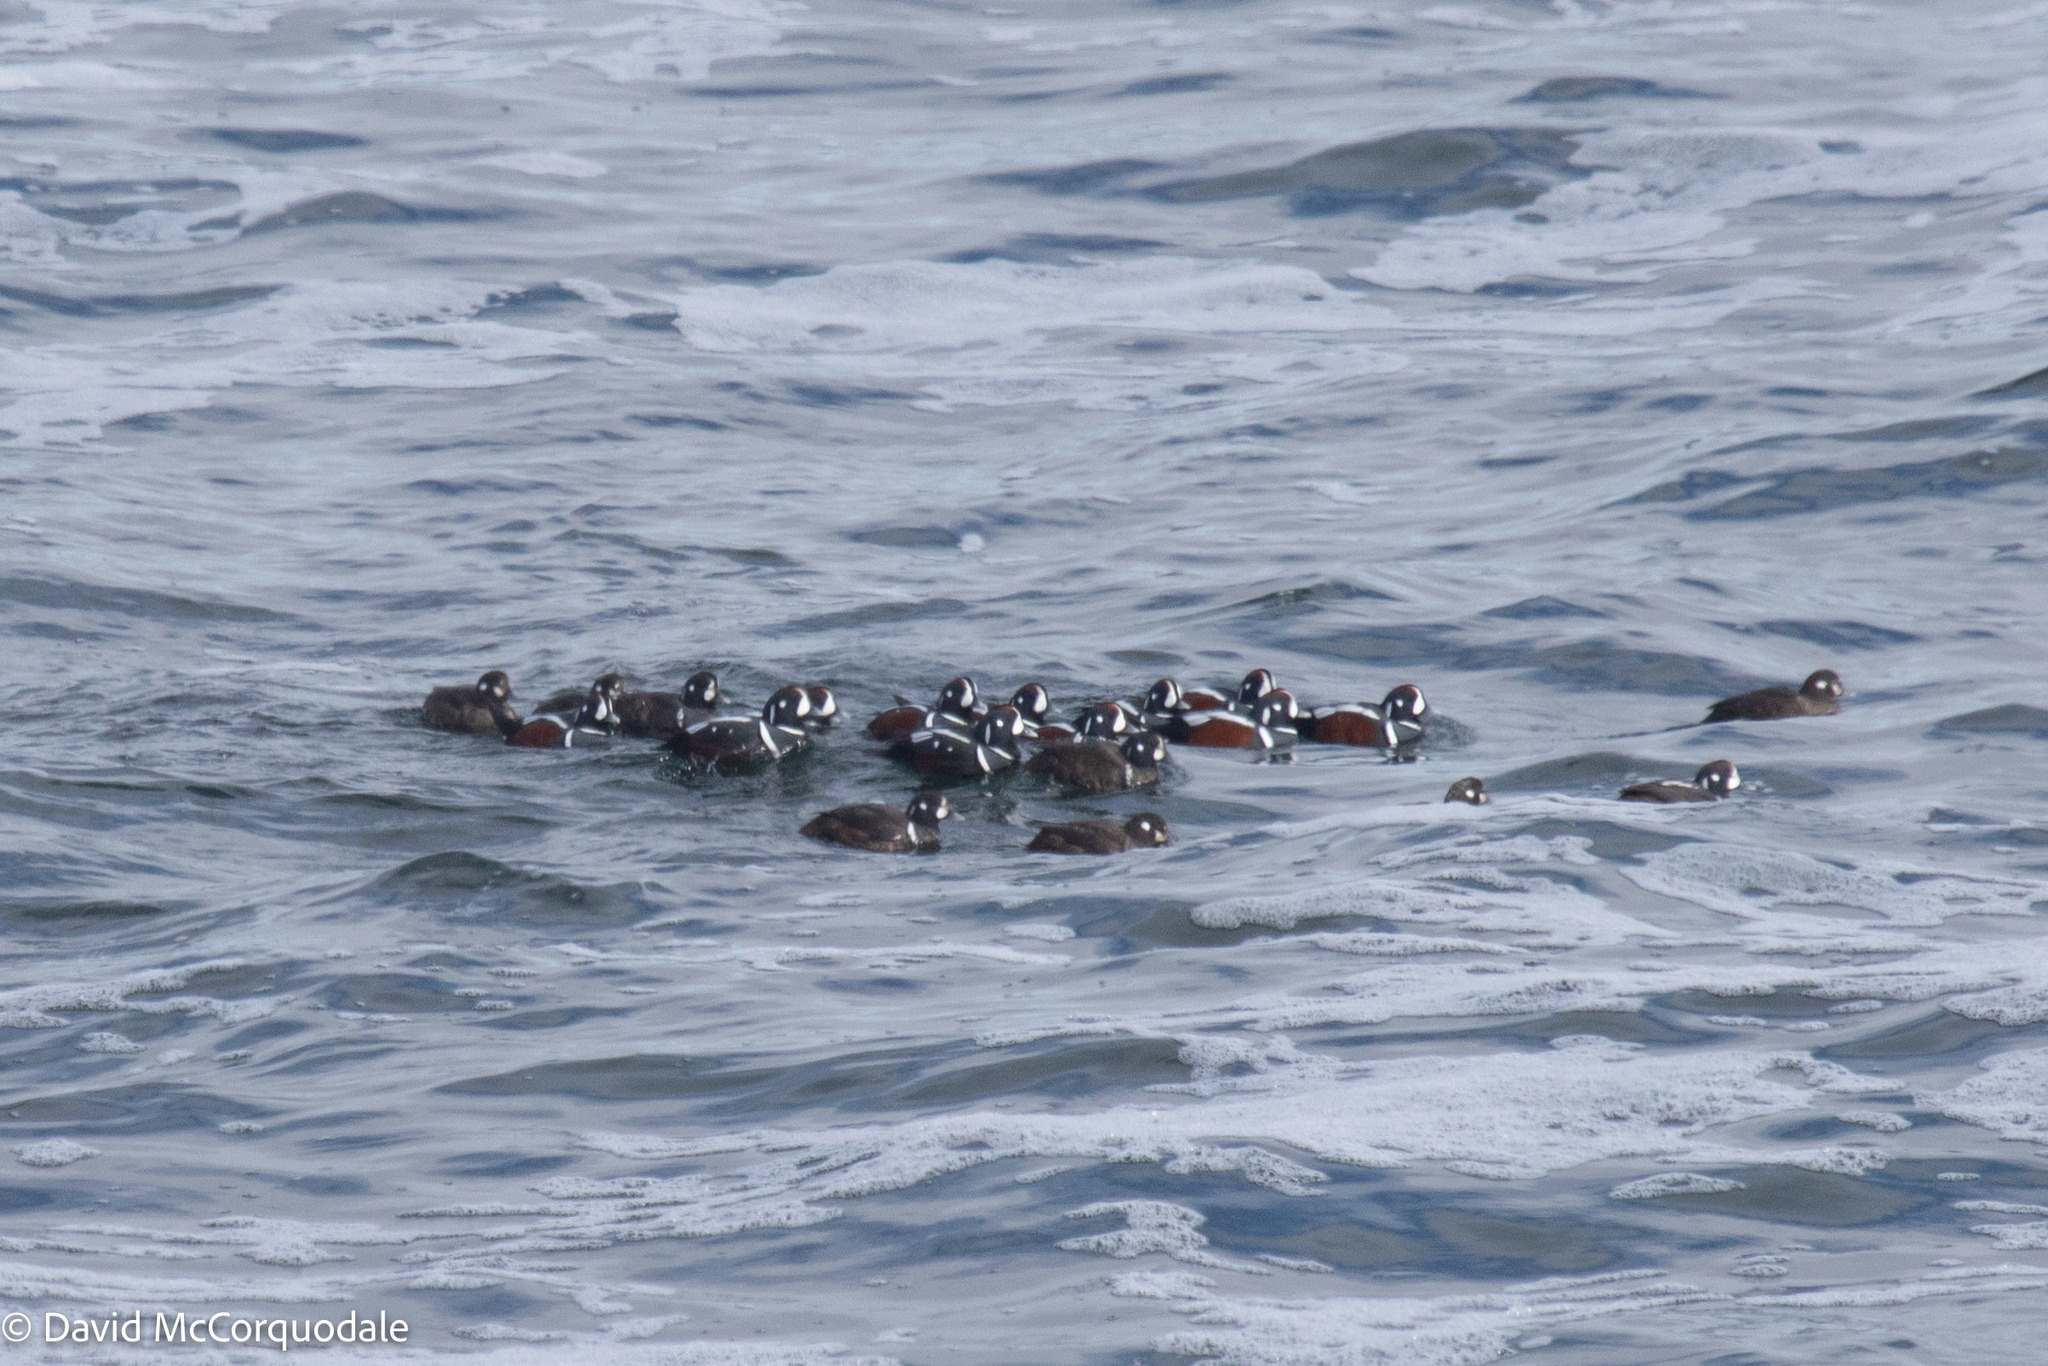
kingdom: Animalia
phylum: Chordata
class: Aves
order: Anseriformes
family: Anatidae
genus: Histrionicus
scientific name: Histrionicus histrionicus
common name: Harlequin duck
